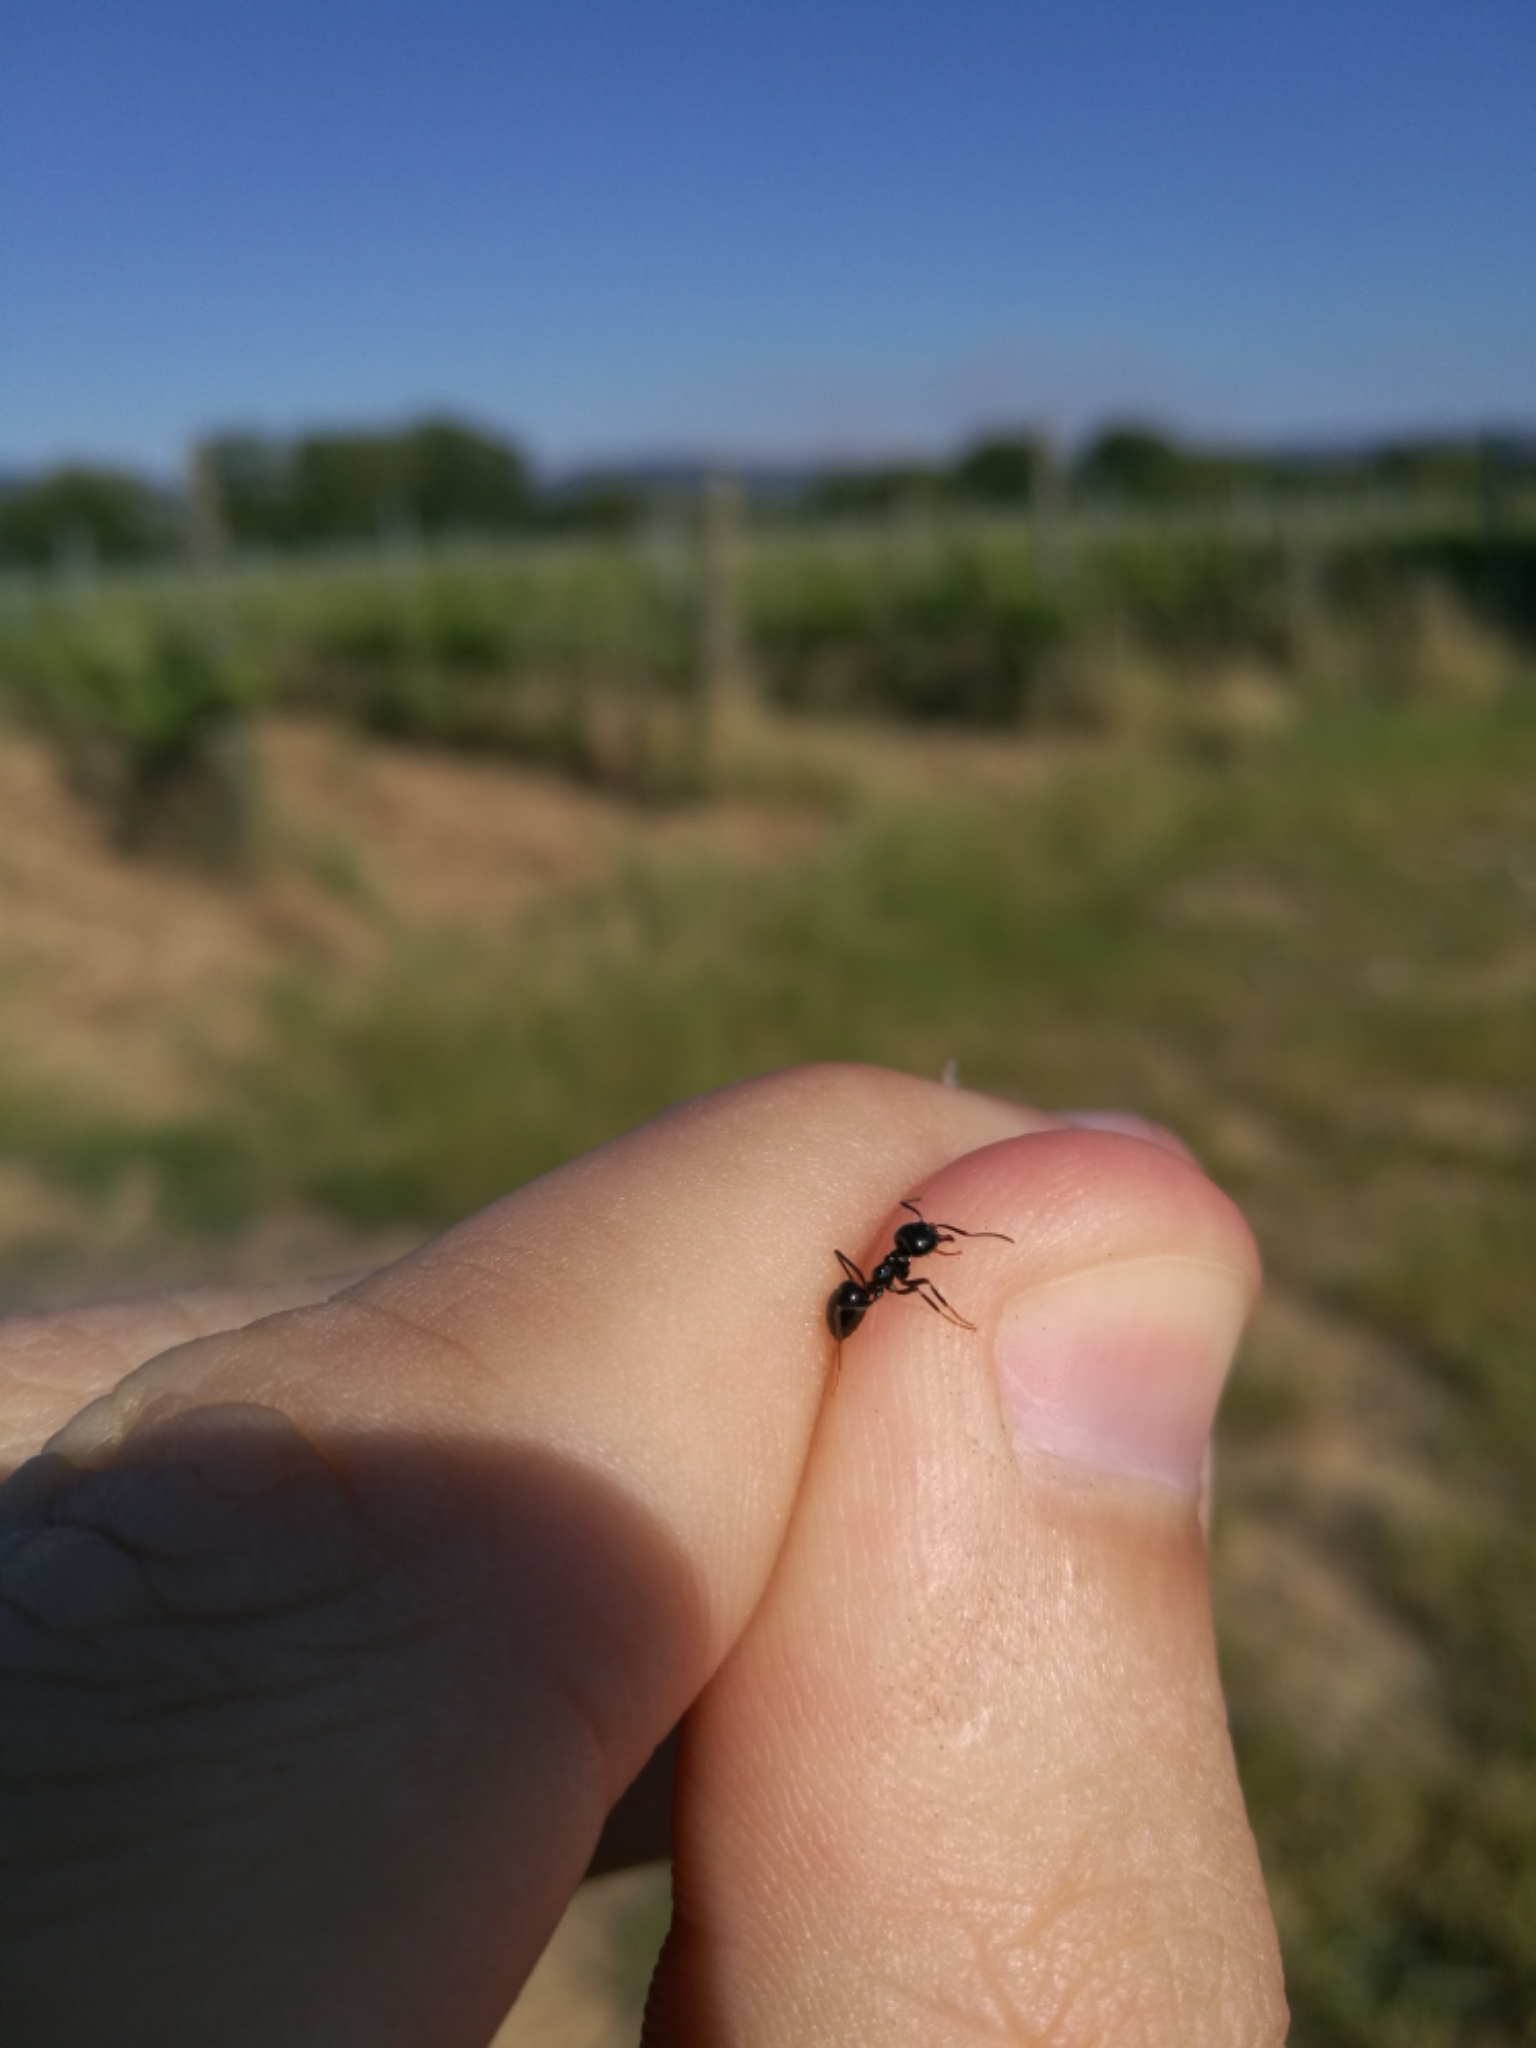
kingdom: Animalia
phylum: Arthropoda
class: Insecta
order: Hymenoptera
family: Formicidae
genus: Lasius
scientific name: Lasius fuliginosus
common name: Jet ant
